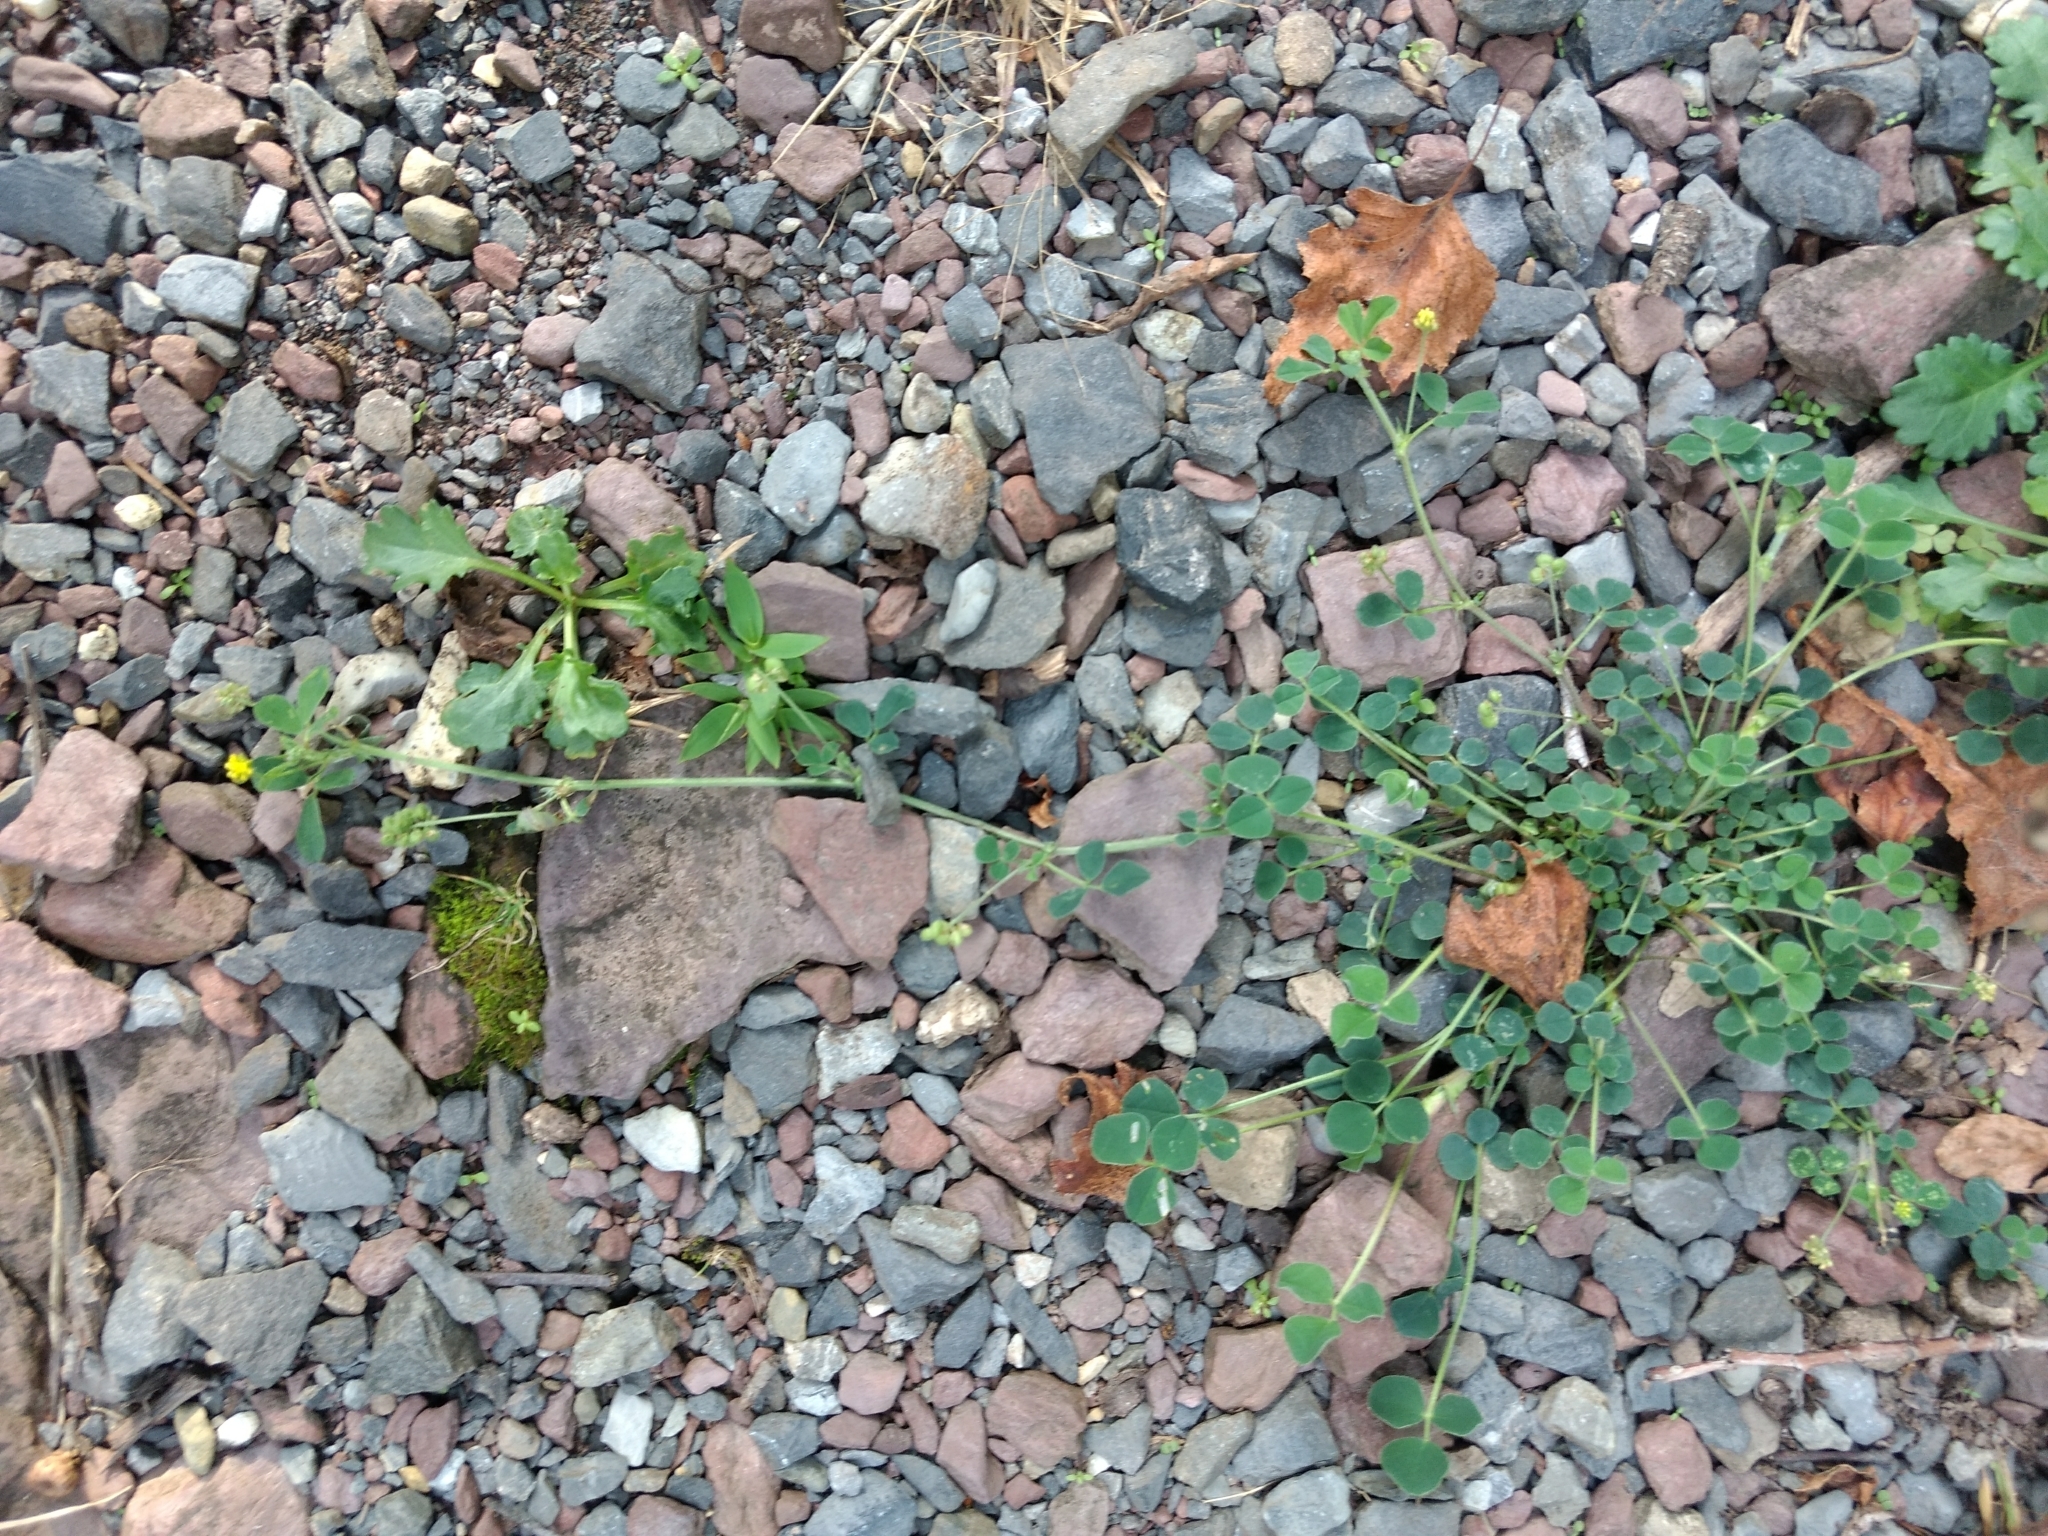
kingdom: Plantae
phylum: Tracheophyta
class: Magnoliopsida
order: Fabales
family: Fabaceae
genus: Medicago
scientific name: Medicago lupulina
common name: Black medick
